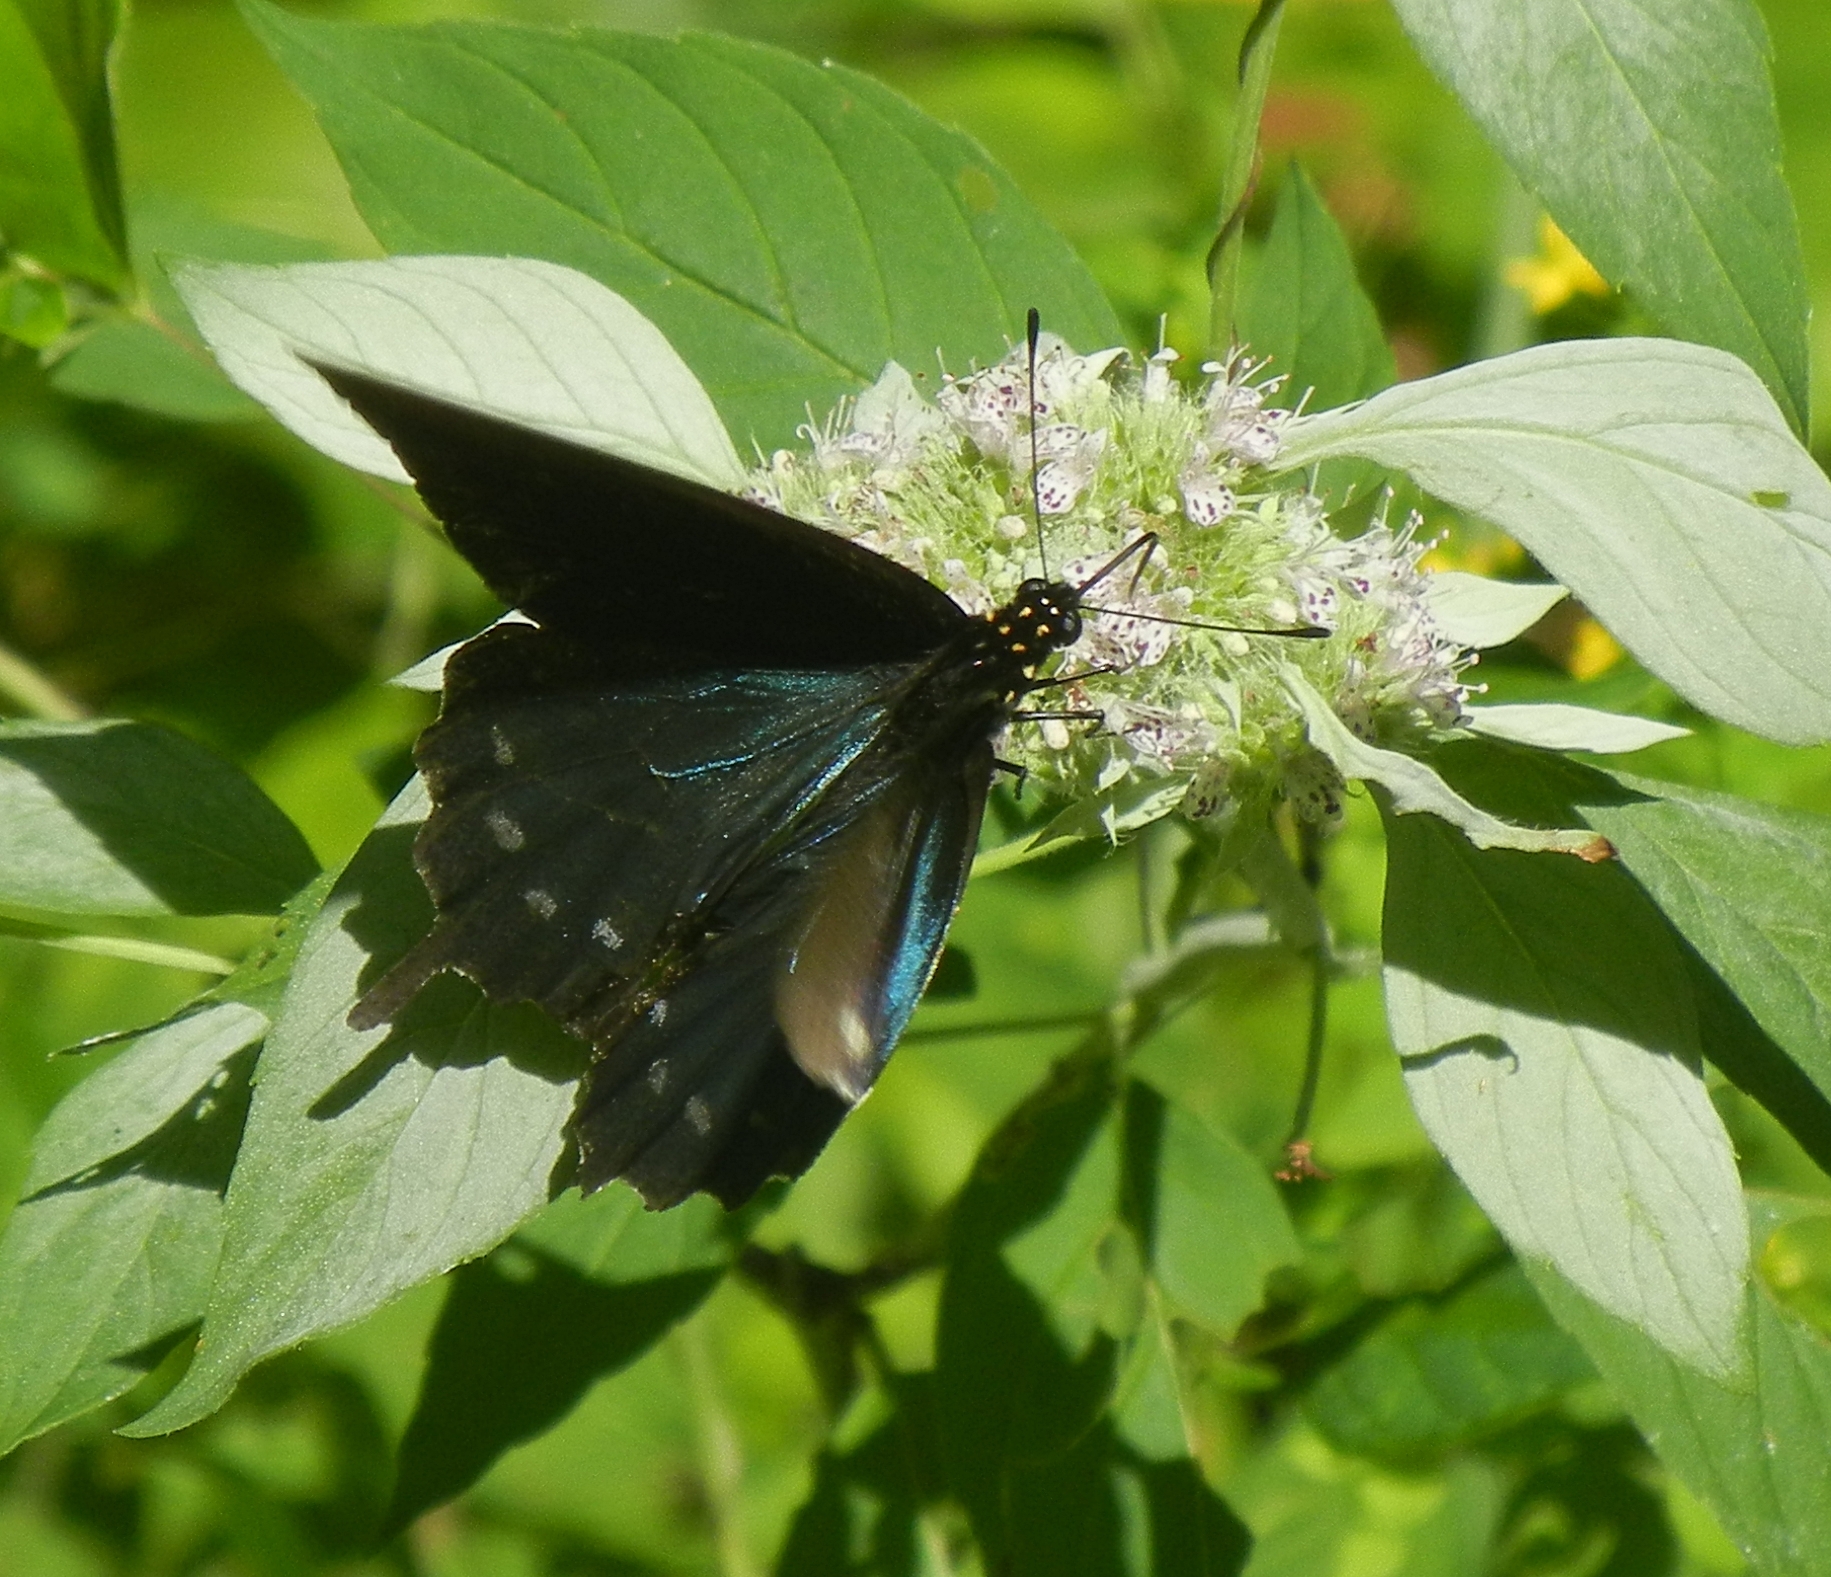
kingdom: Animalia
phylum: Arthropoda
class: Insecta
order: Lepidoptera
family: Papilionidae
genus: Battus
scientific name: Battus philenor
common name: Pipevine swallowtail
